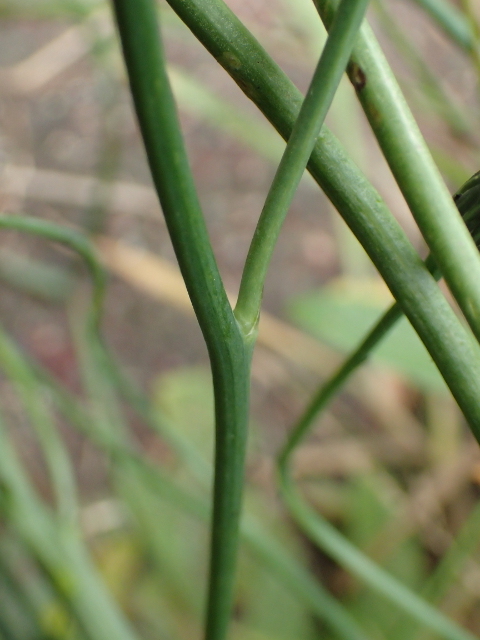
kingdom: Plantae
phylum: Tracheophyta
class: Magnoliopsida
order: Asterales
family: Asteraceae
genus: Hypochaeris
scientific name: Hypochaeris radicata
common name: Flatweed
